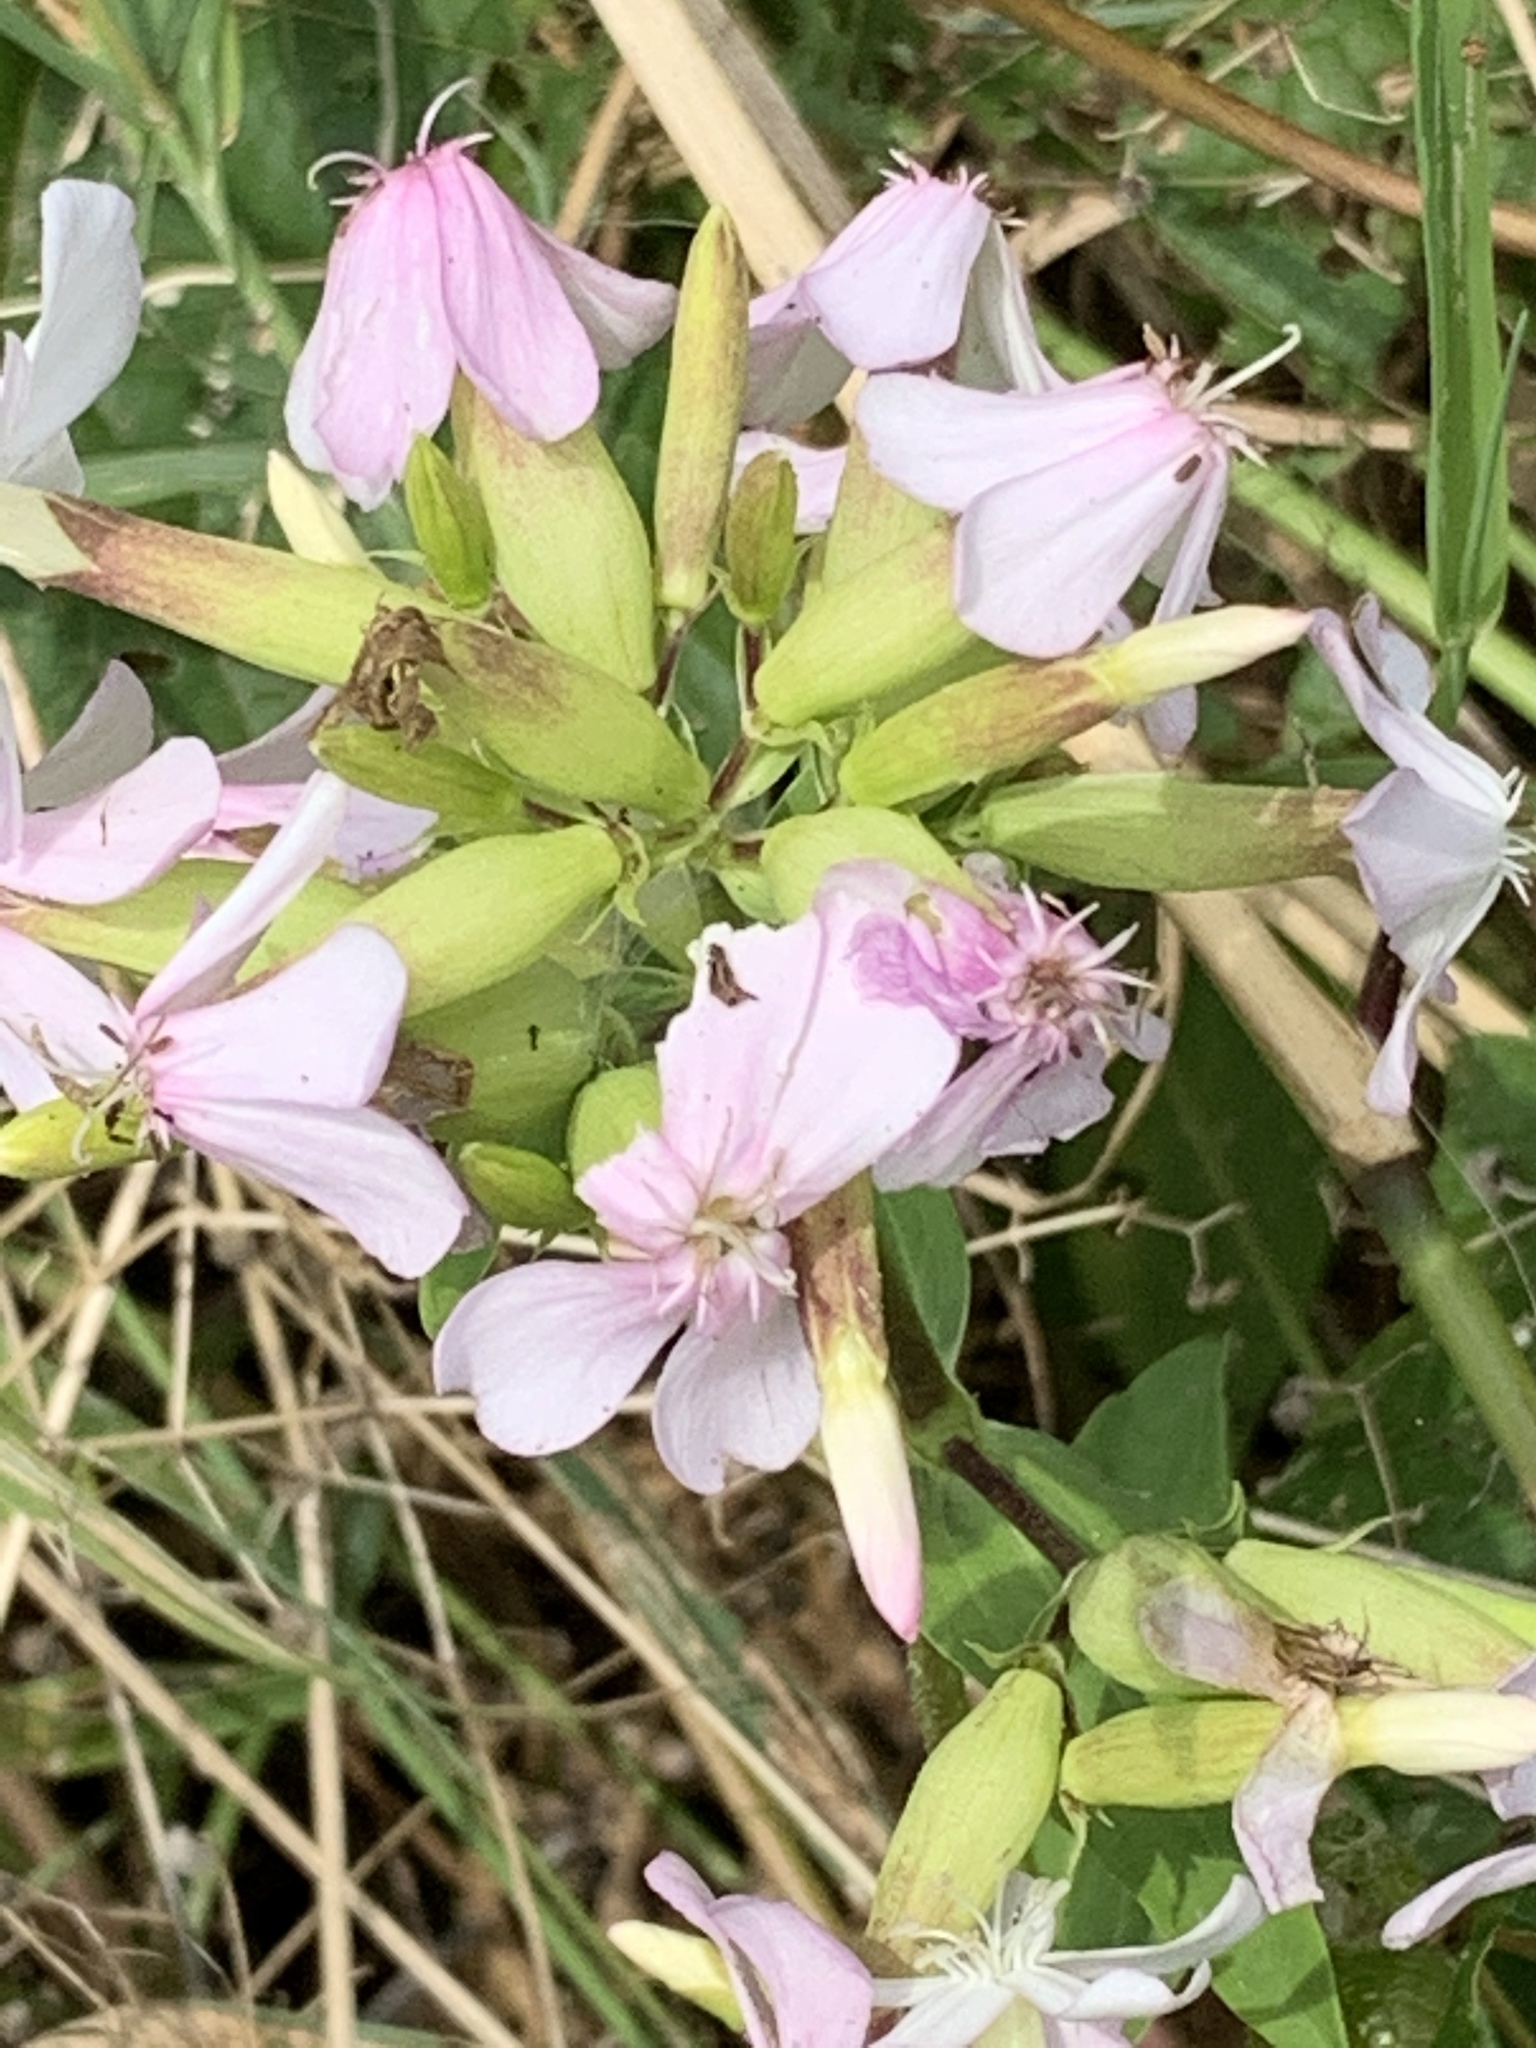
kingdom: Plantae
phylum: Tracheophyta
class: Magnoliopsida
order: Caryophyllales
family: Caryophyllaceae
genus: Saponaria
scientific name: Saponaria officinalis
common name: Soapwort
